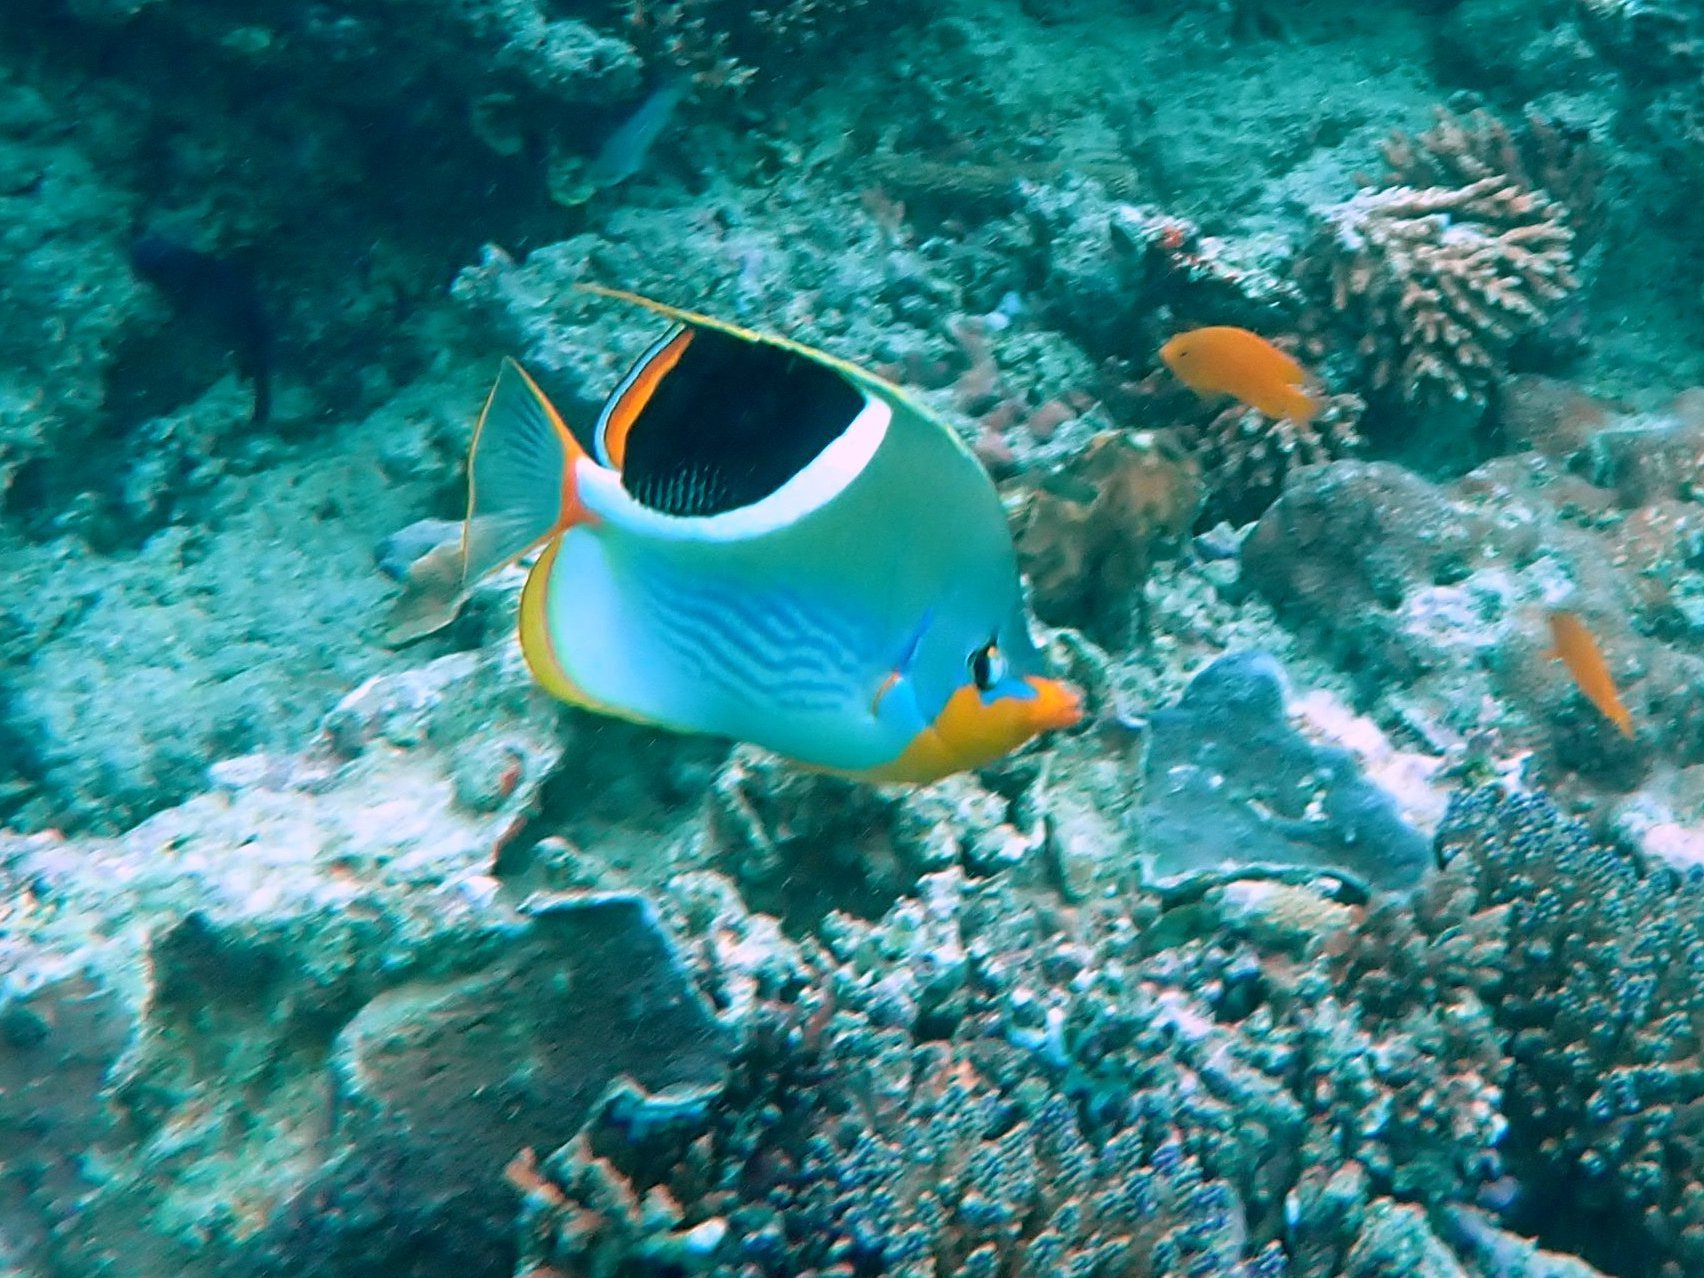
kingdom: Animalia
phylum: Chordata
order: Perciformes
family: Chaetodontidae
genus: Chaetodon
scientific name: Chaetodon ephippium
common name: Saddled butterflyfish
